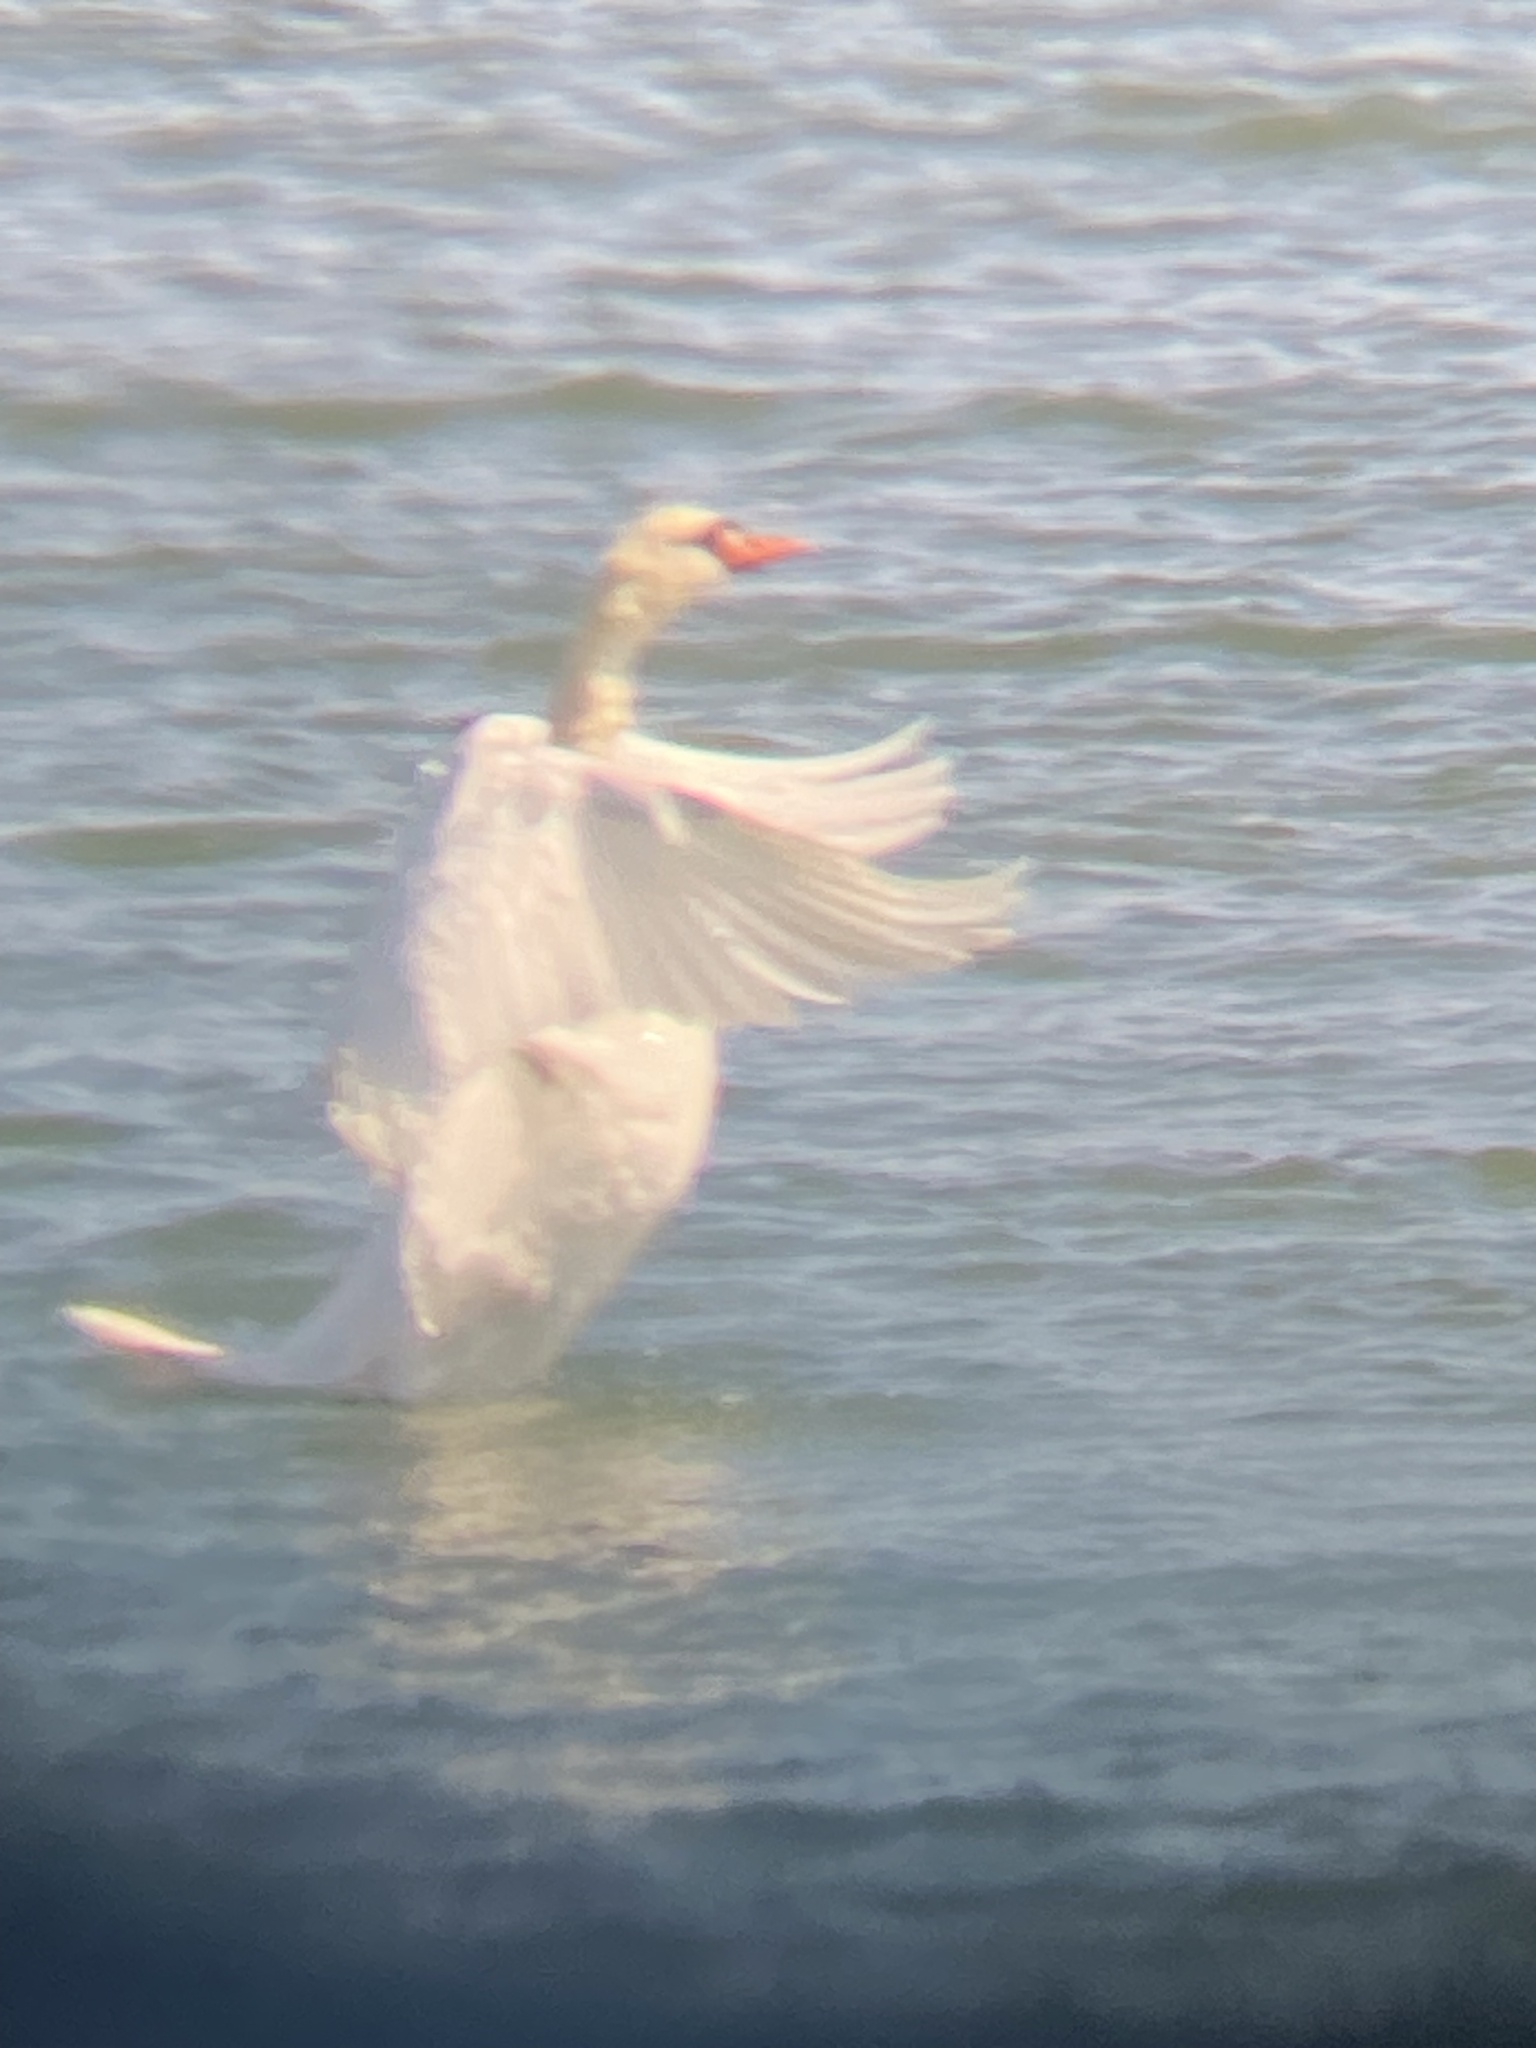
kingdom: Animalia
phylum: Chordata
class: Aves
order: Anseriformes
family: Anatidae
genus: Cygnus
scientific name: Cygnus olor
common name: Mute swan
